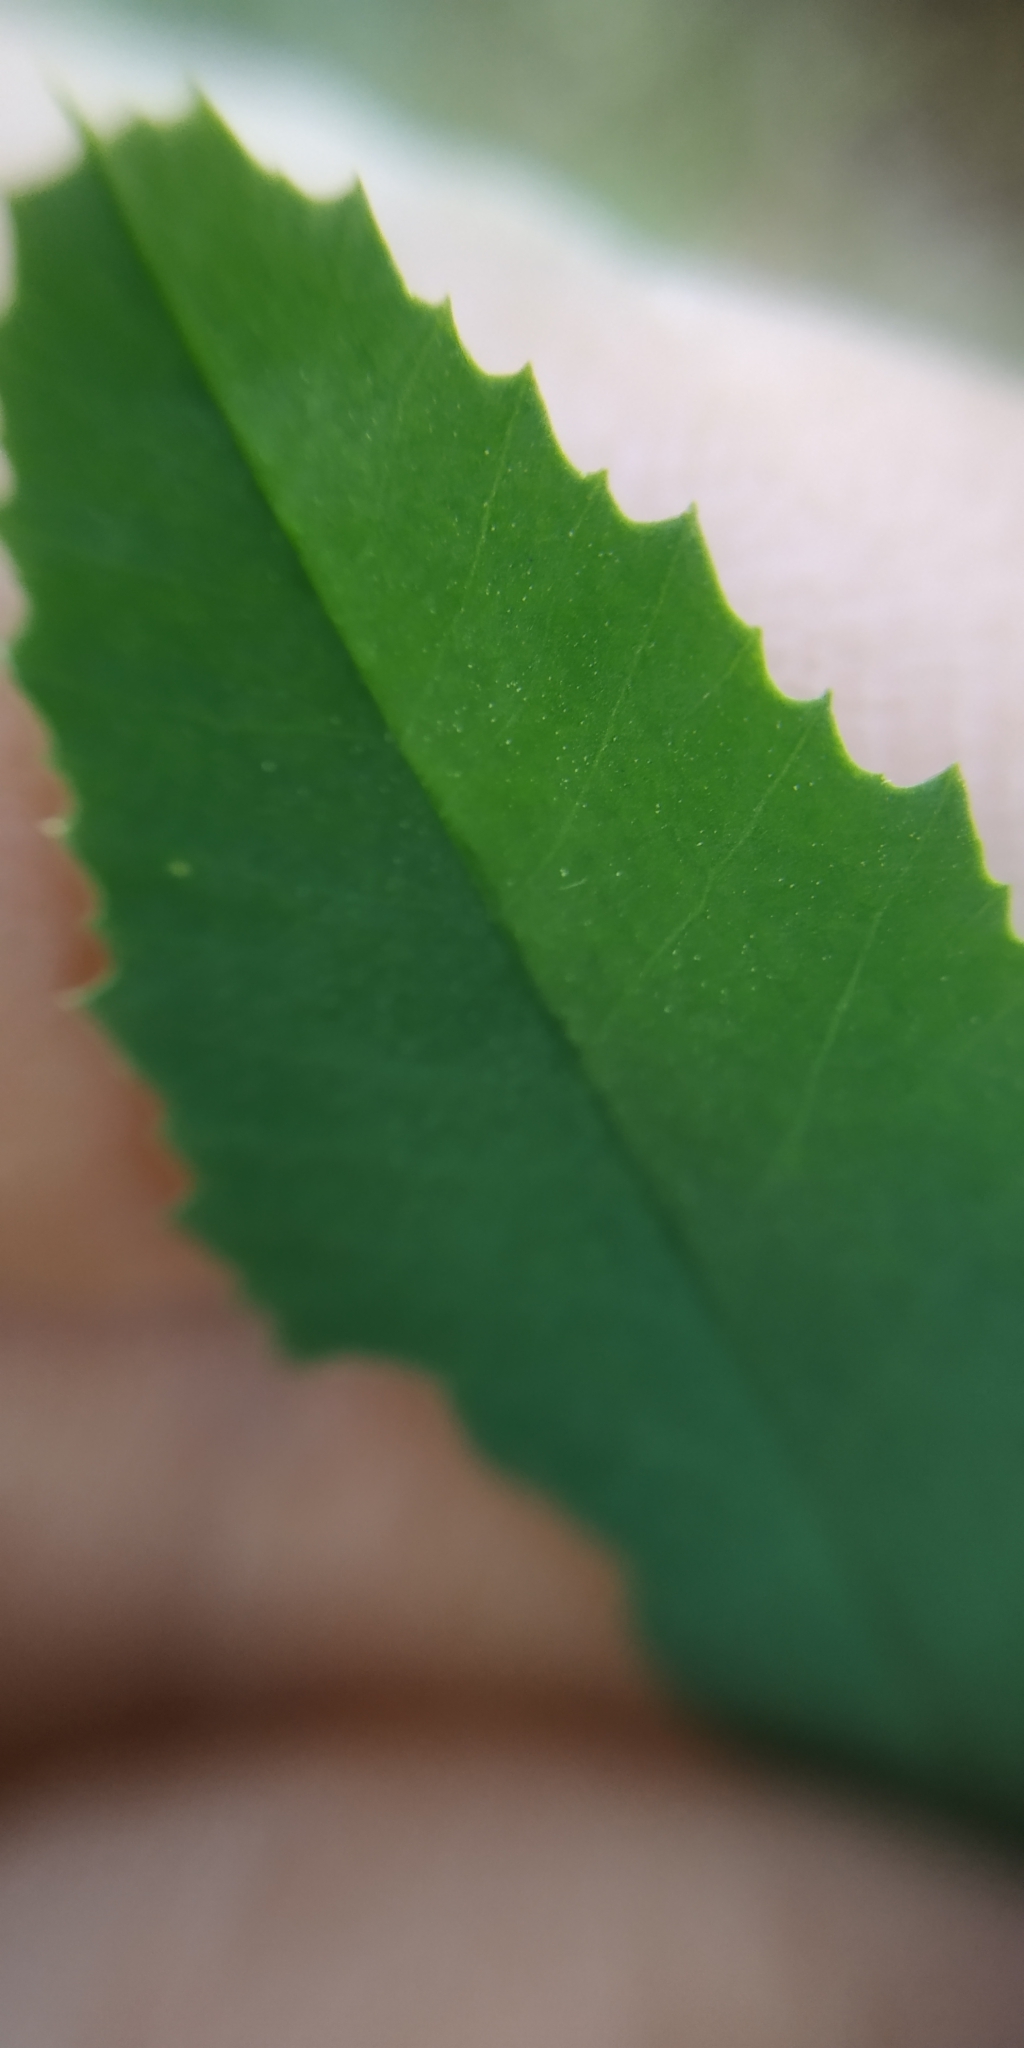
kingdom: Plantae
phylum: Tracheophyta
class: Magnoliopsida
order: Fabales
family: Fabaceae
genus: Melilotus
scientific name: Melilotus officinalis
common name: Sweetclover
